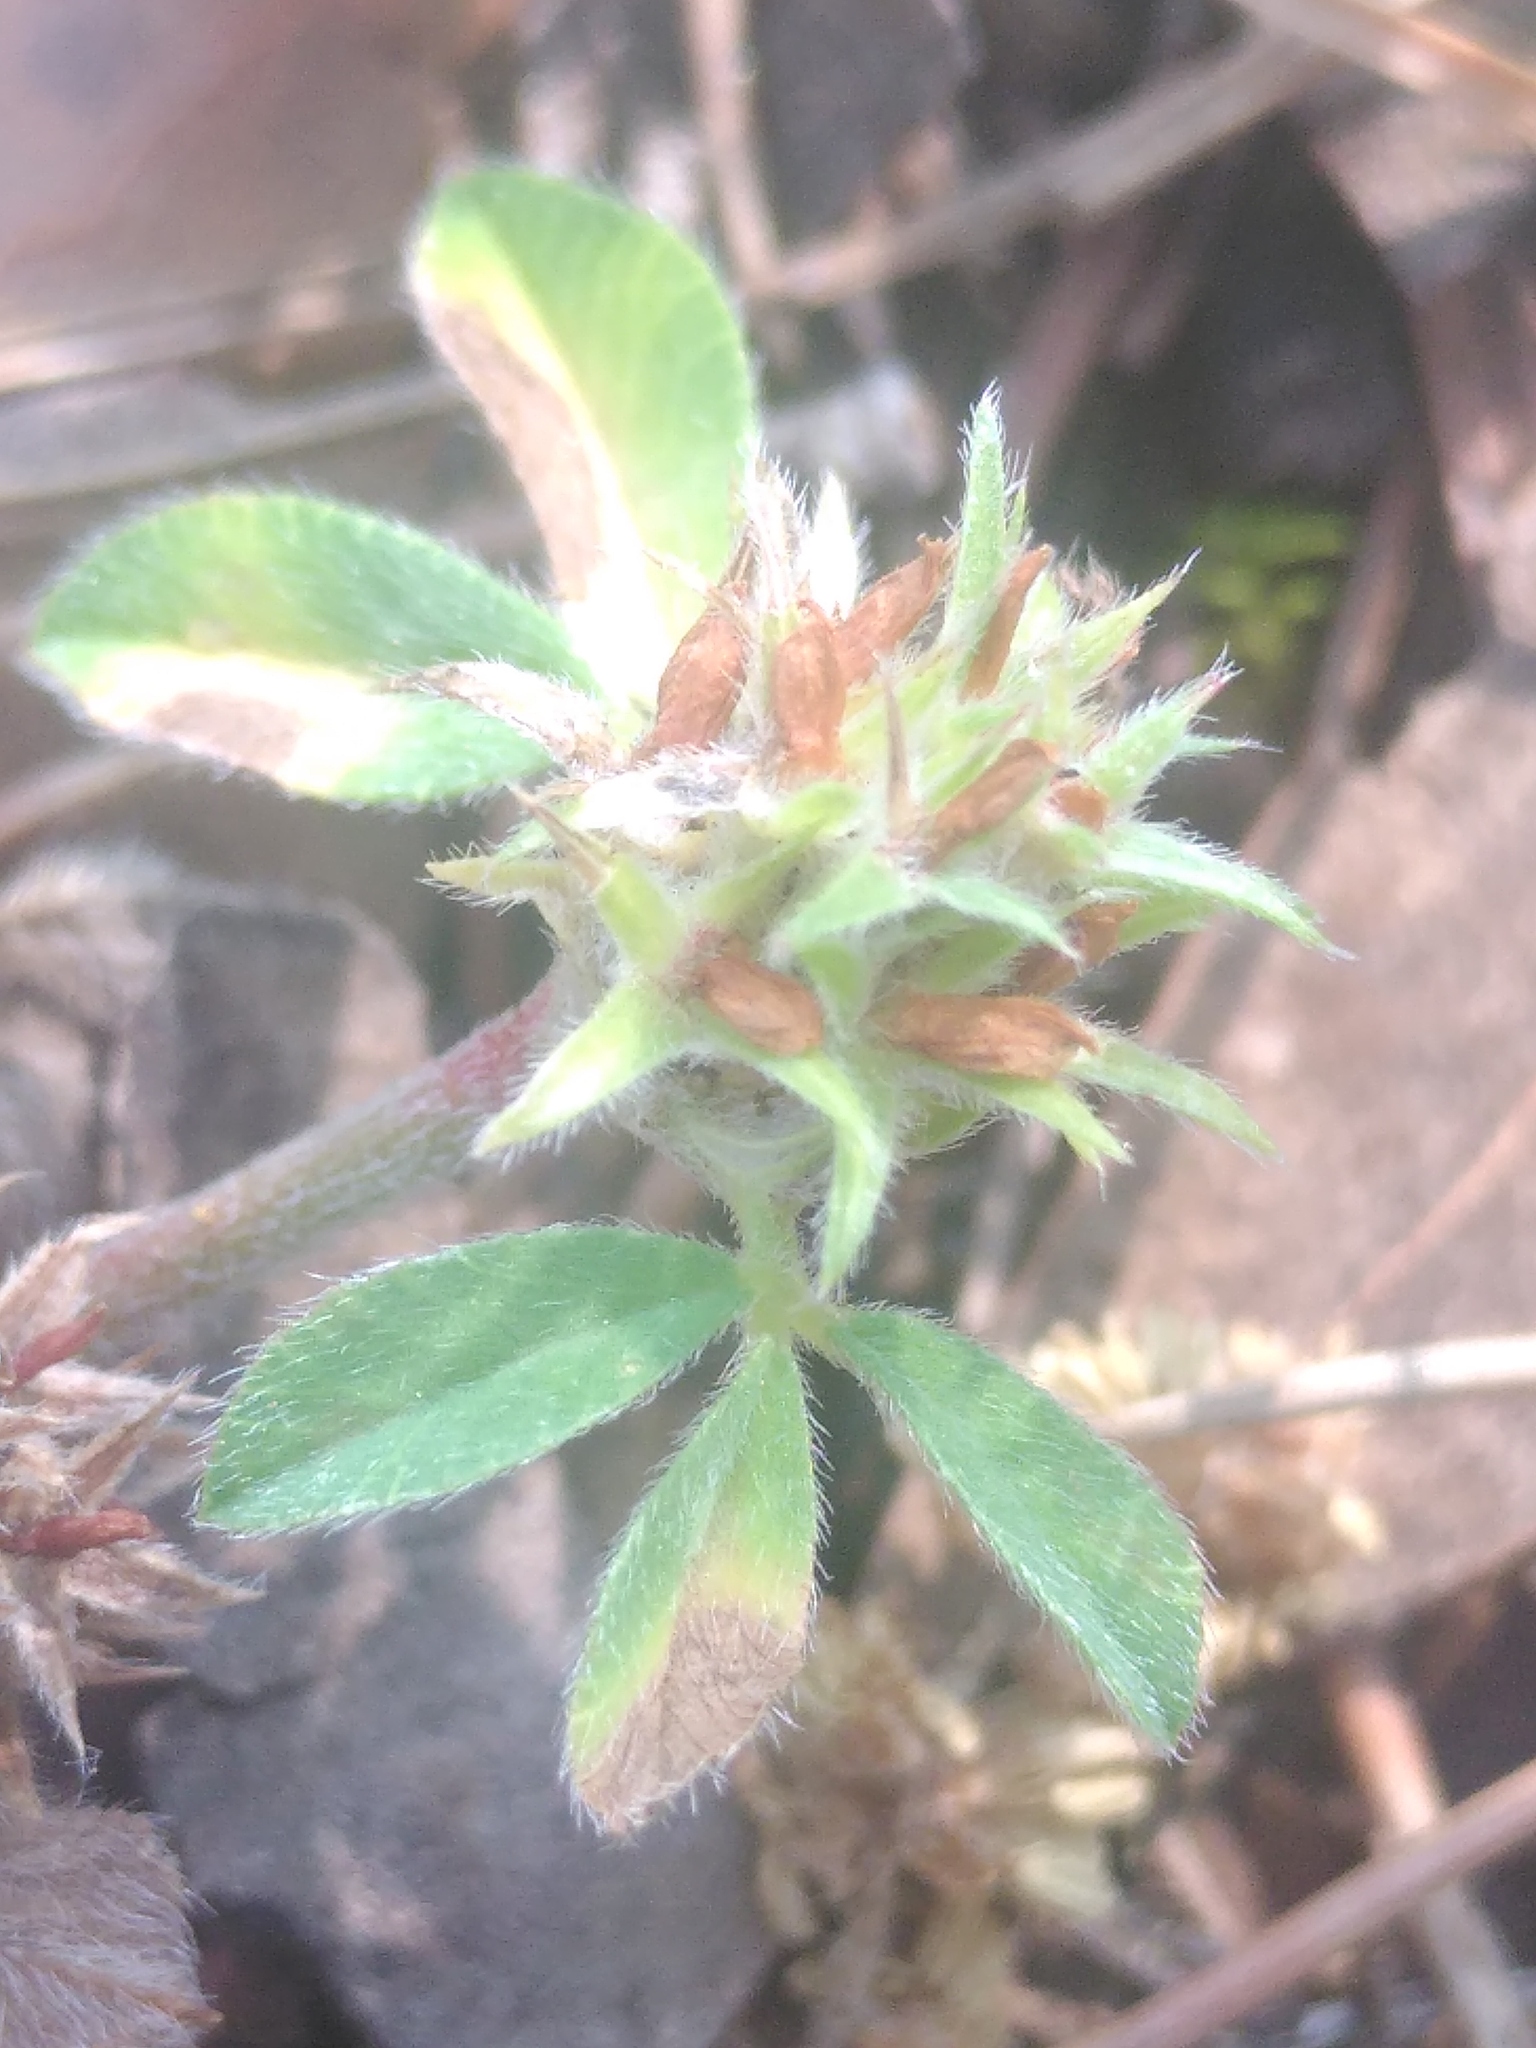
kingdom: Plantae
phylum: Tracheophyta
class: Magnoliopsida
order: Fabales
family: Fabaceae
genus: Trifolium
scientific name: Trifolium scabrum
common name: Rough clover
